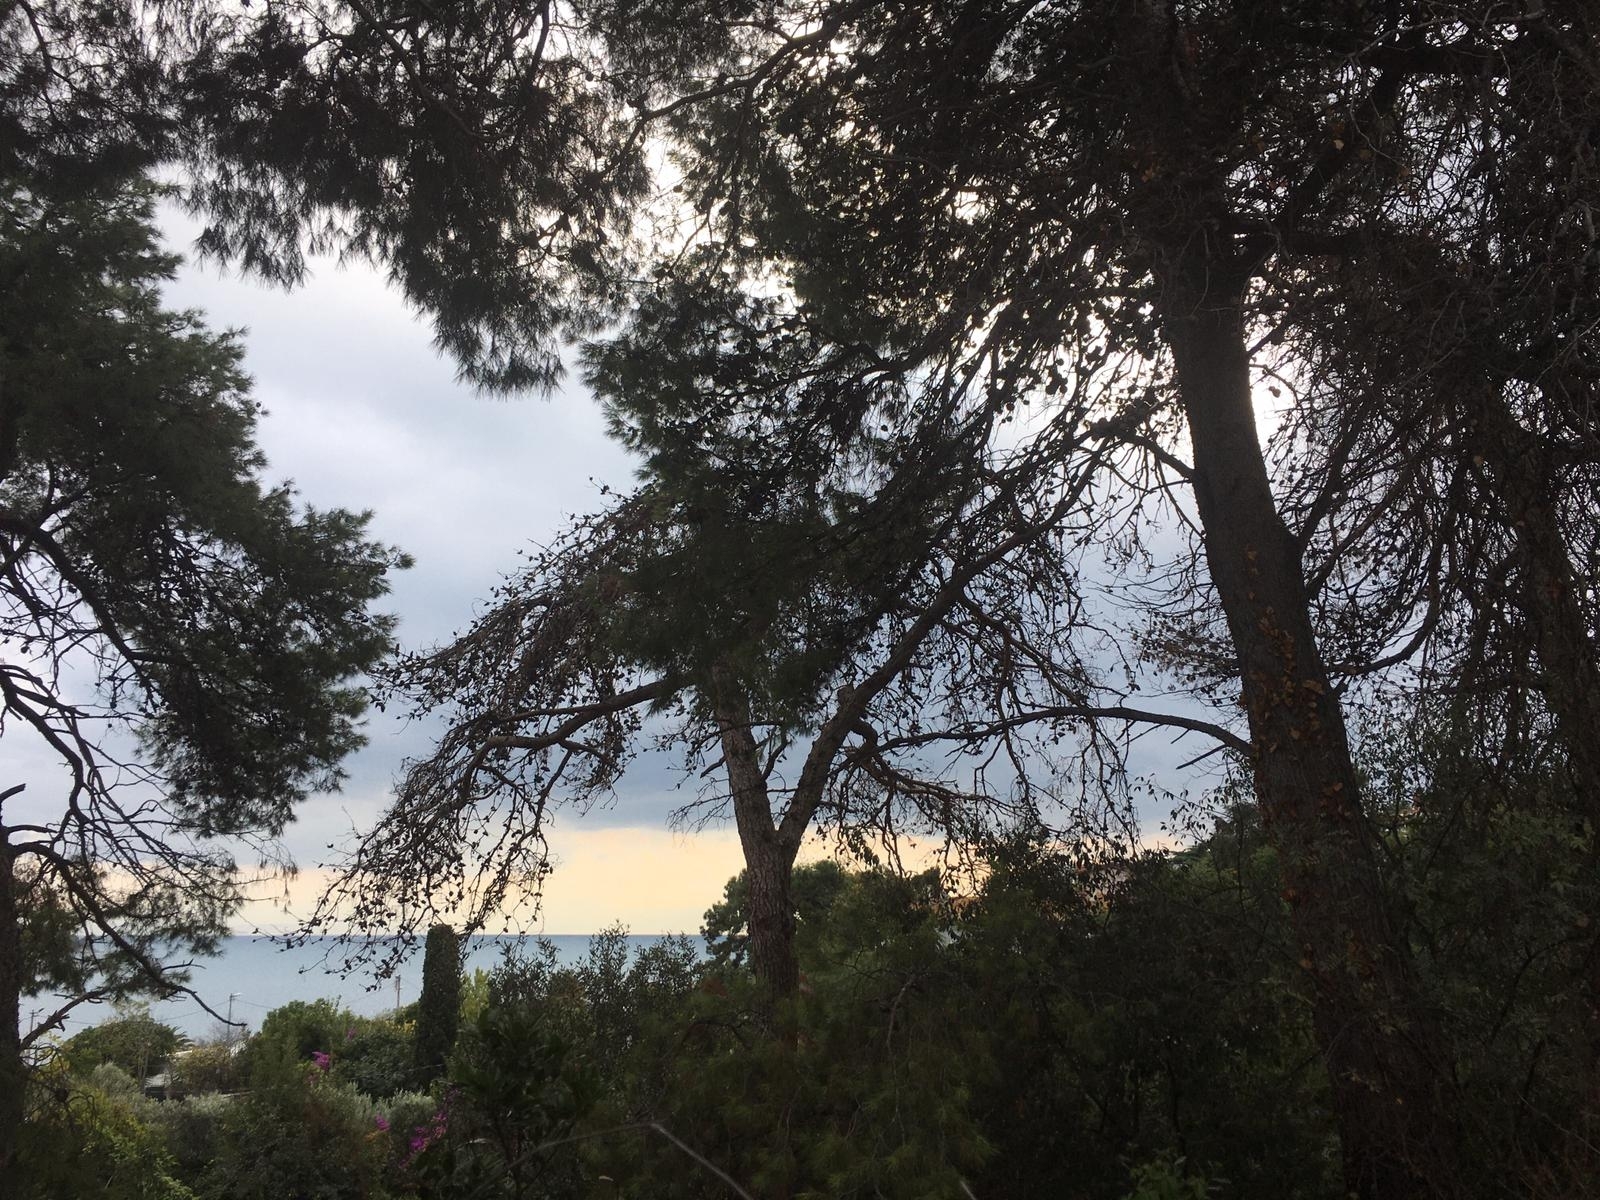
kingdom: Plantae
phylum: Tracheophyta
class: Pinopsida
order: Pinales
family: Pinaceae
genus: Pinus
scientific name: Pinus brutia
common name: Turkish pine
